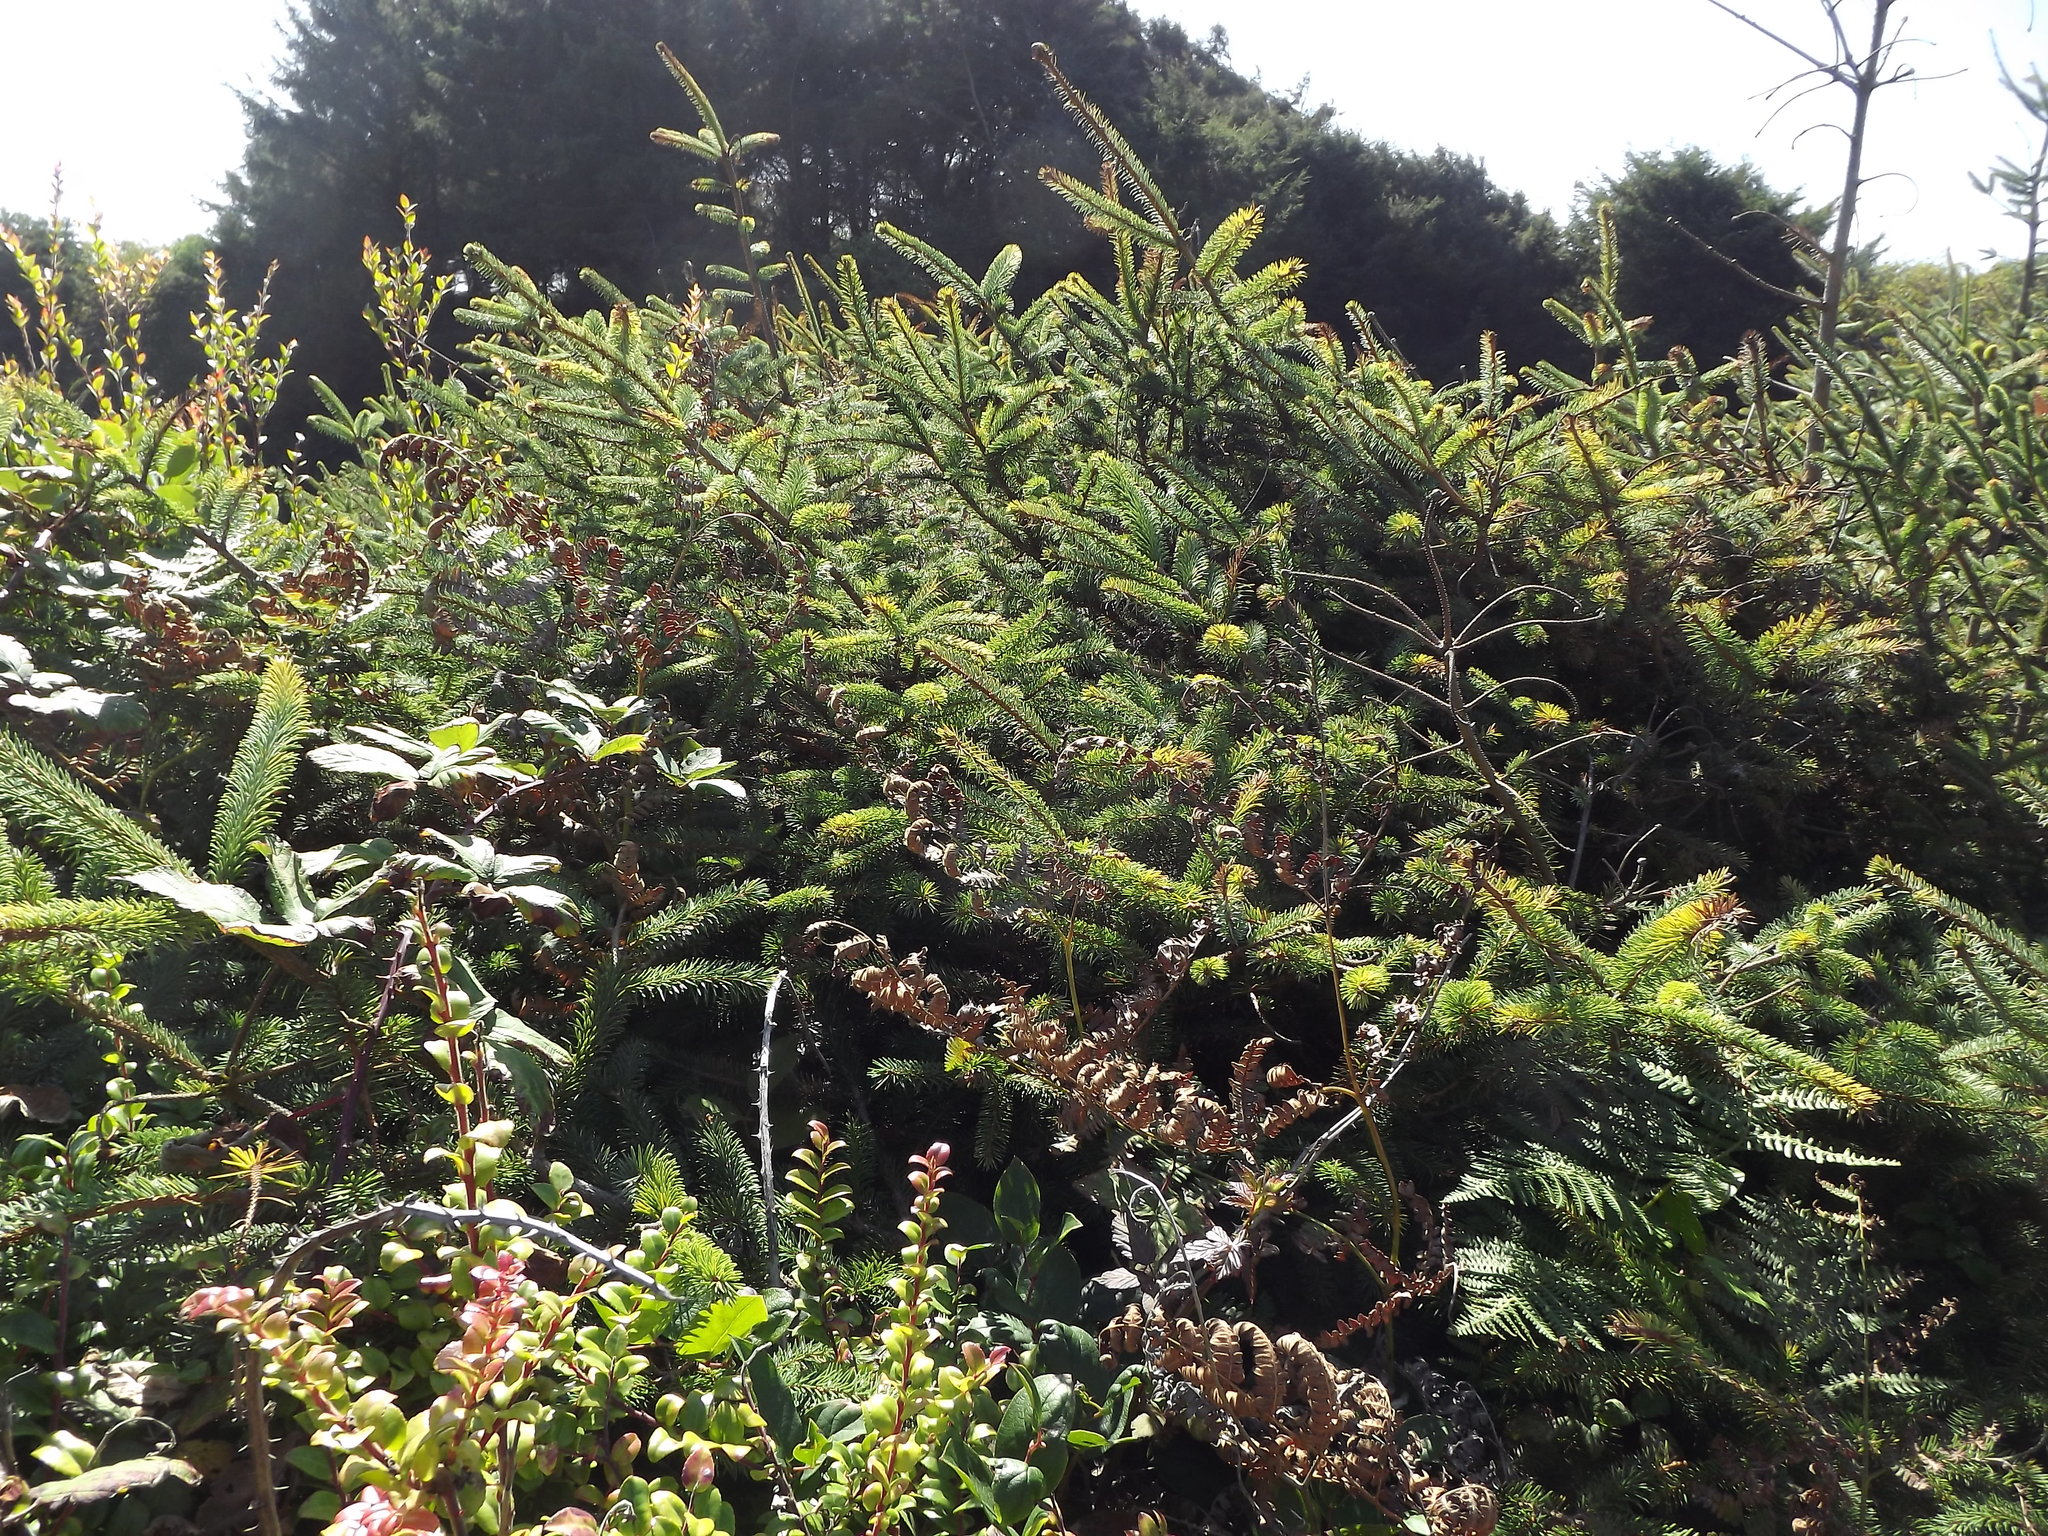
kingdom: Plantae
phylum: Tracheophyta
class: Pinopsida
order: Pinales
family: Pinaceae
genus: Picea
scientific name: Picea sitchensis
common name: Sitka spruce
